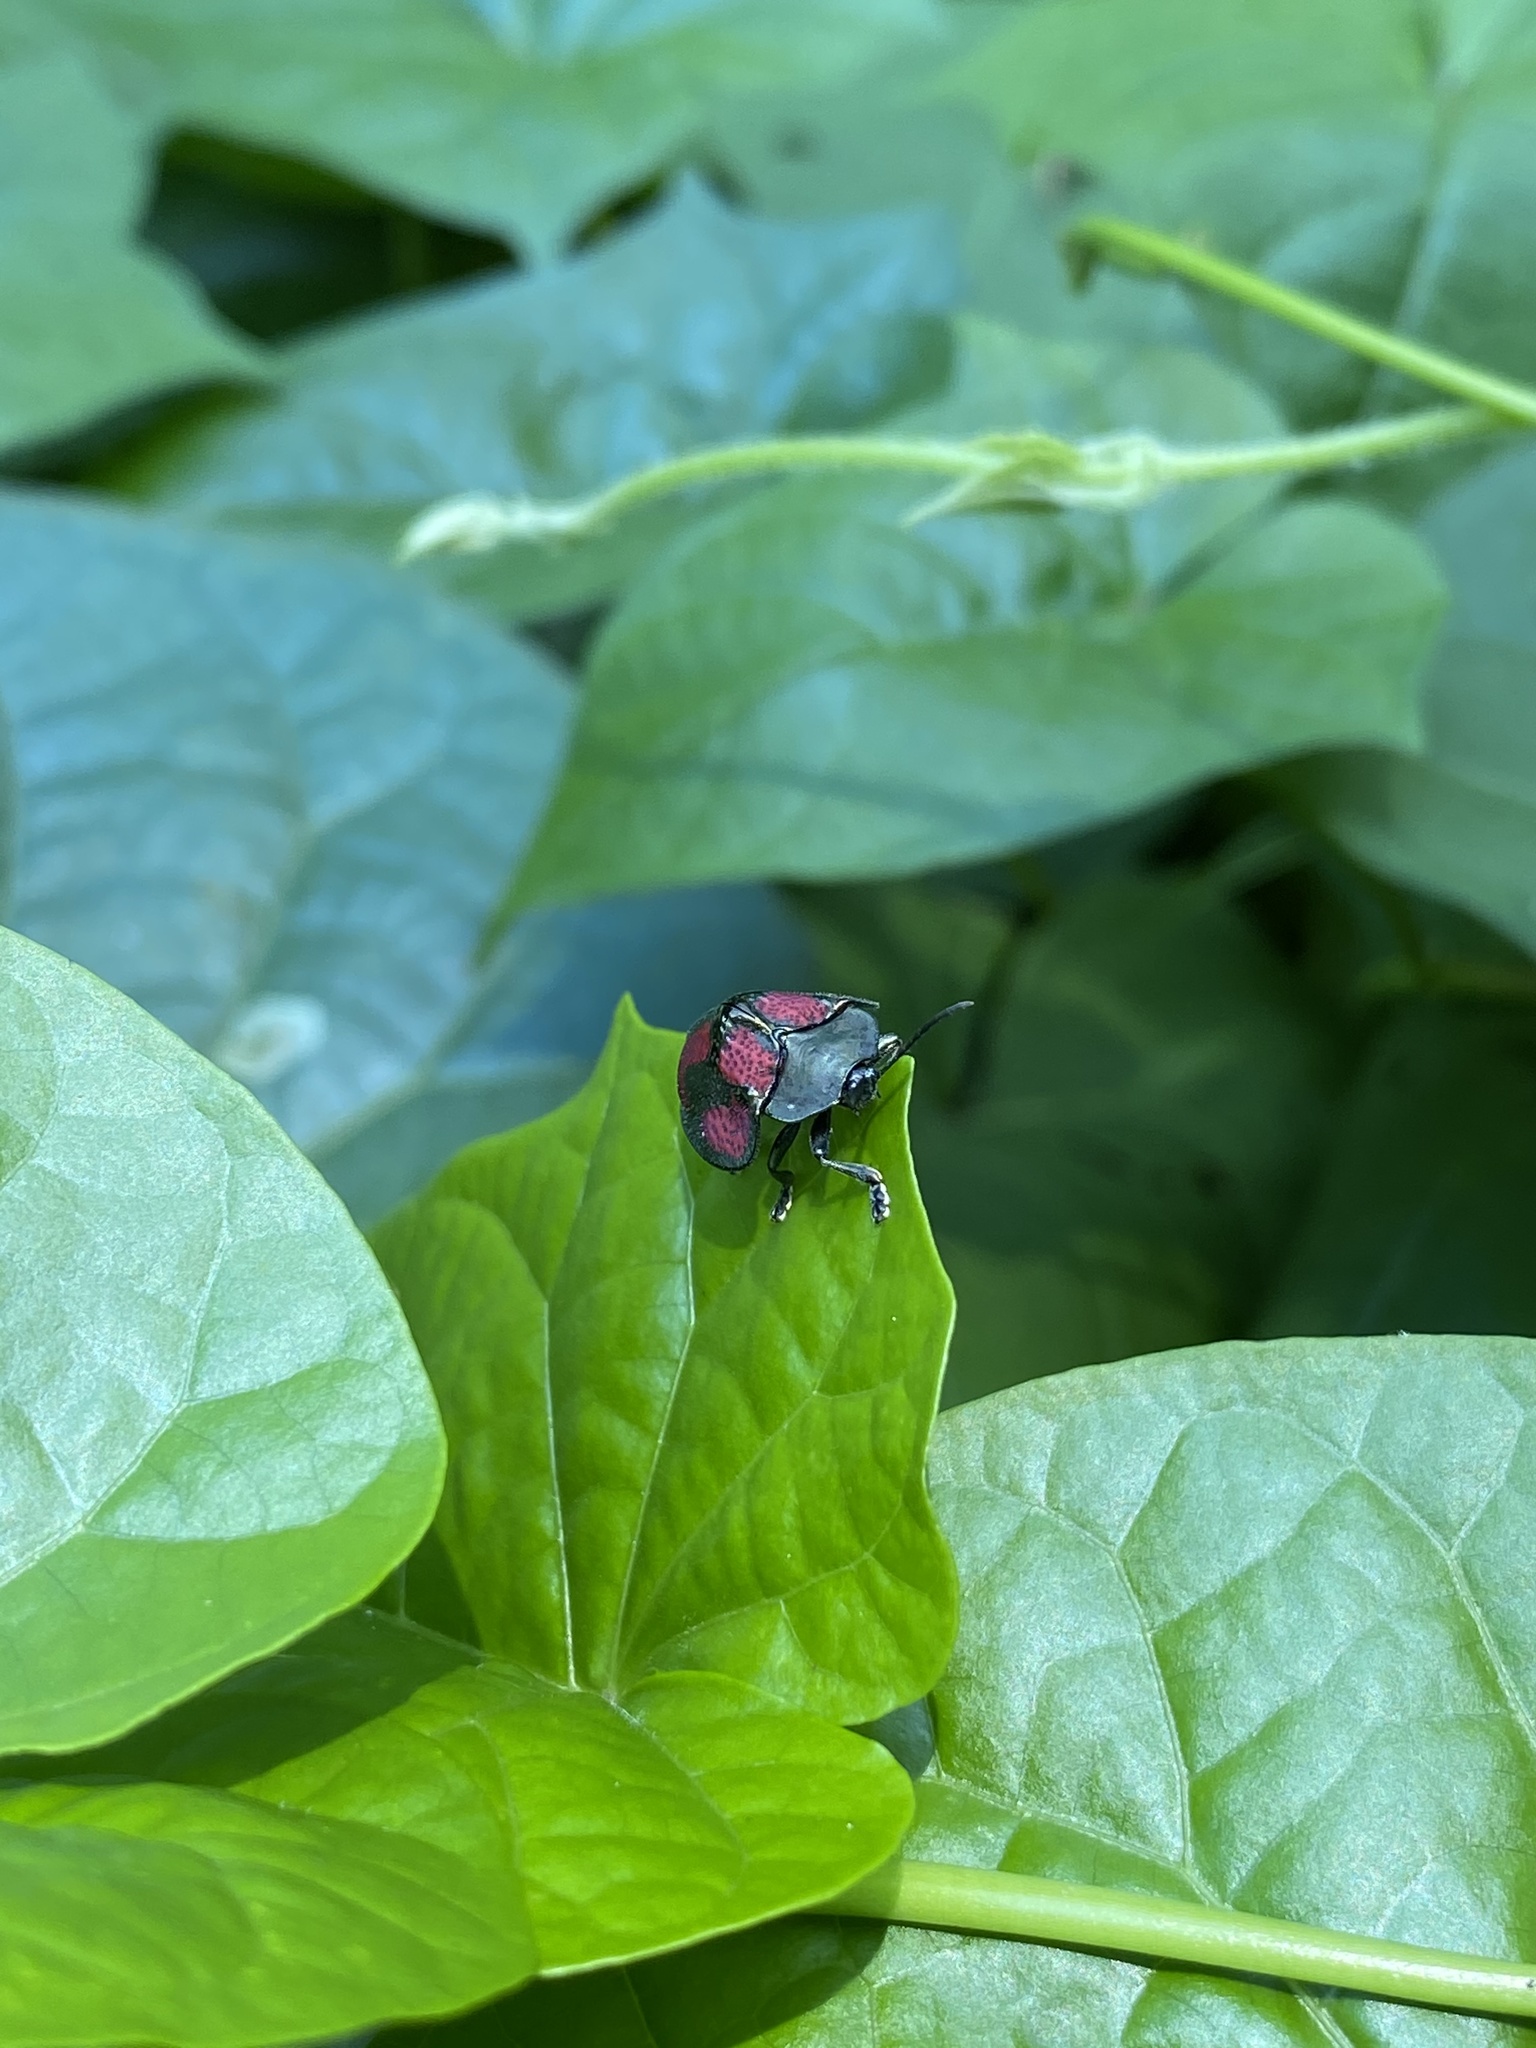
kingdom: Animalia
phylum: Arthropoda
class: Insecta
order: Coleoptera
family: Chrysomelidae
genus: Stolas
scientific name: Stolas punicea
